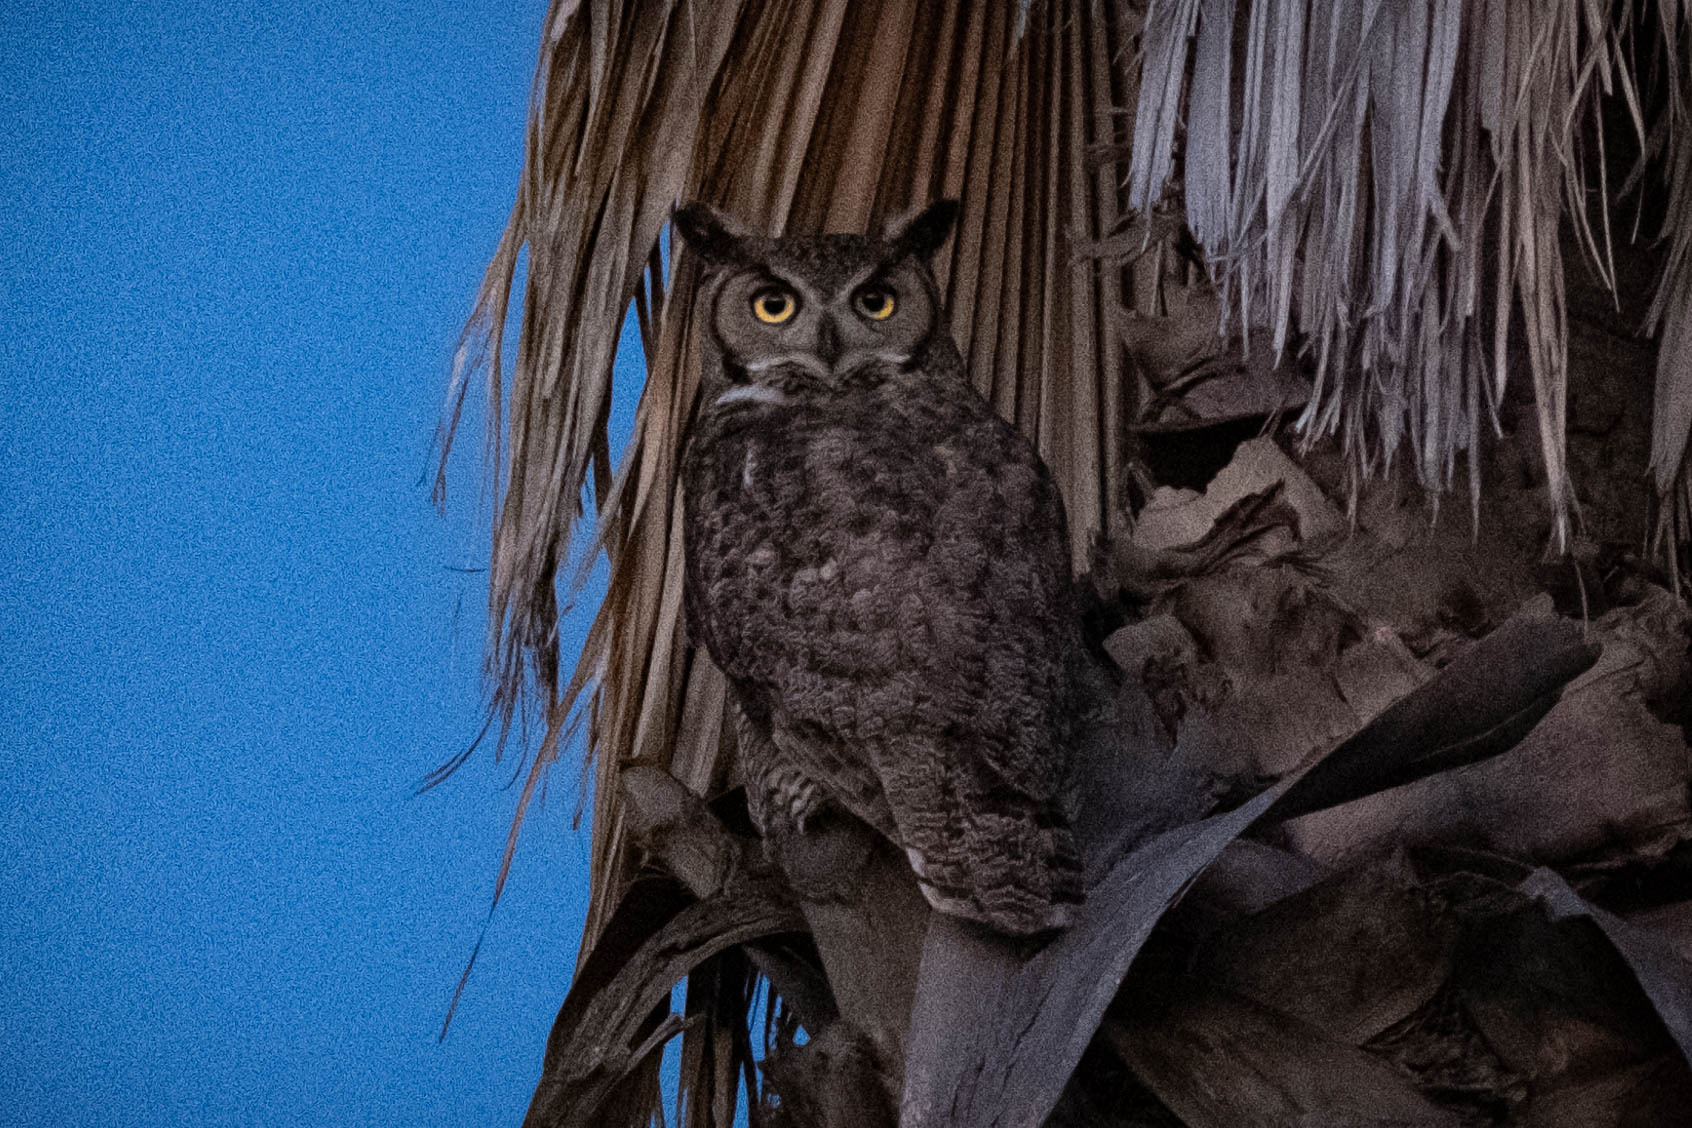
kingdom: Animalia
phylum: Chordata
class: Aves
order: Strigiformes
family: Strigidae
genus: Bubo
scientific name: Bubo virginianus
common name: Great horned owl
